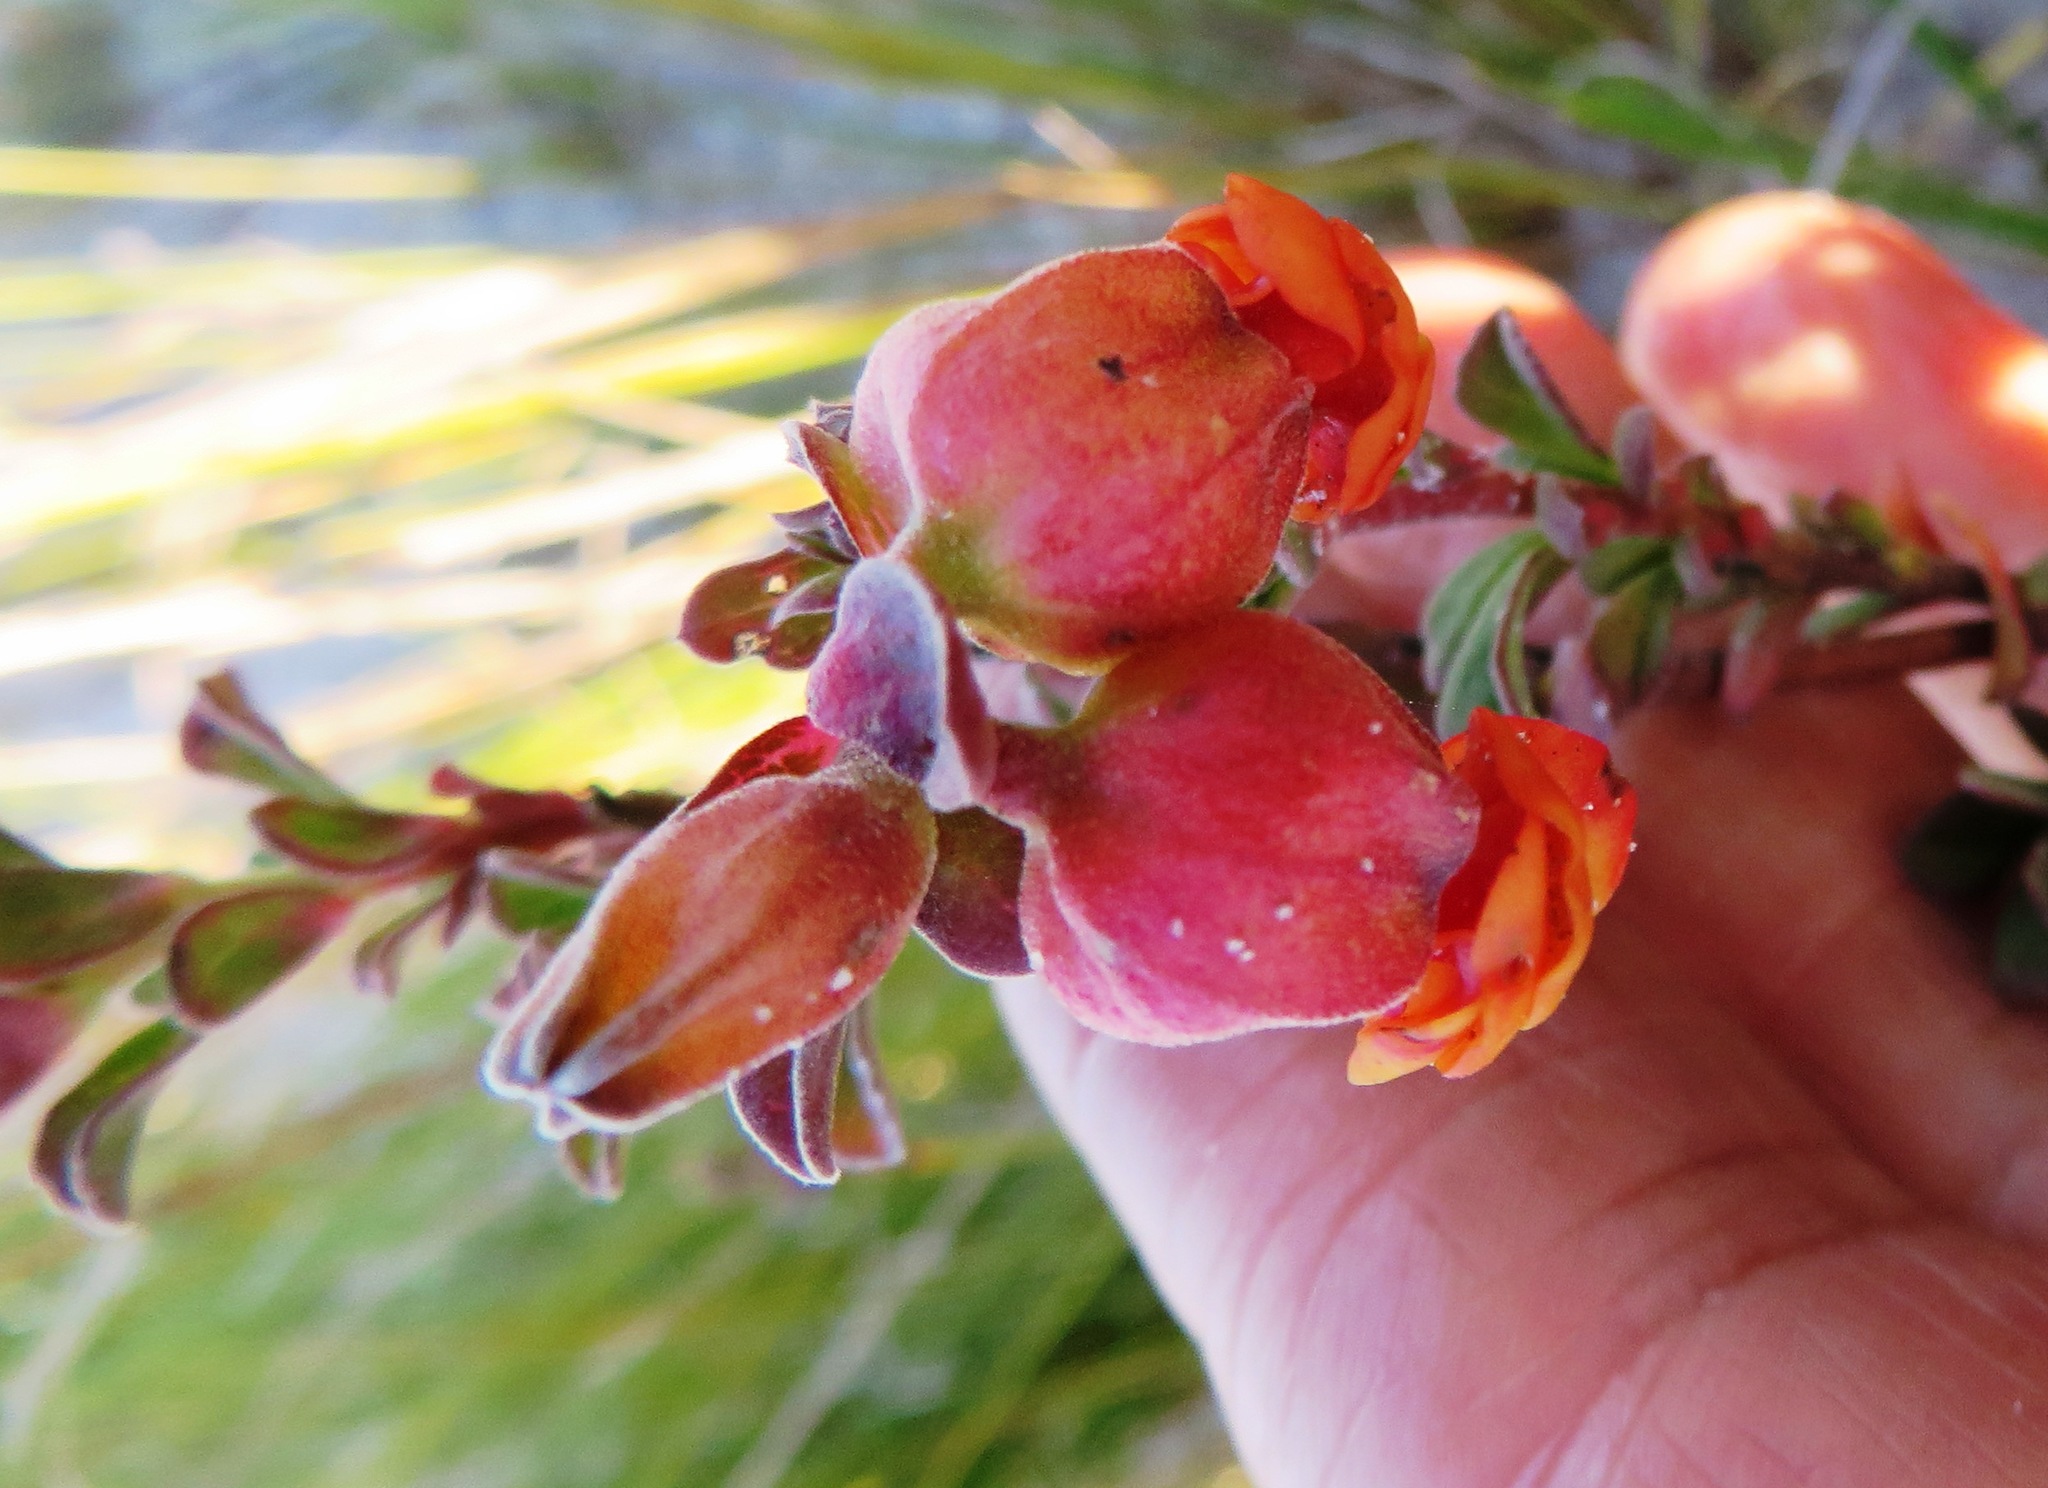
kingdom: Plantae
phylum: Tracheophyta
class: Magnoliopsida
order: Malvales
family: Malvaceae
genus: Hermannia
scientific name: Hermannia ternifolia
